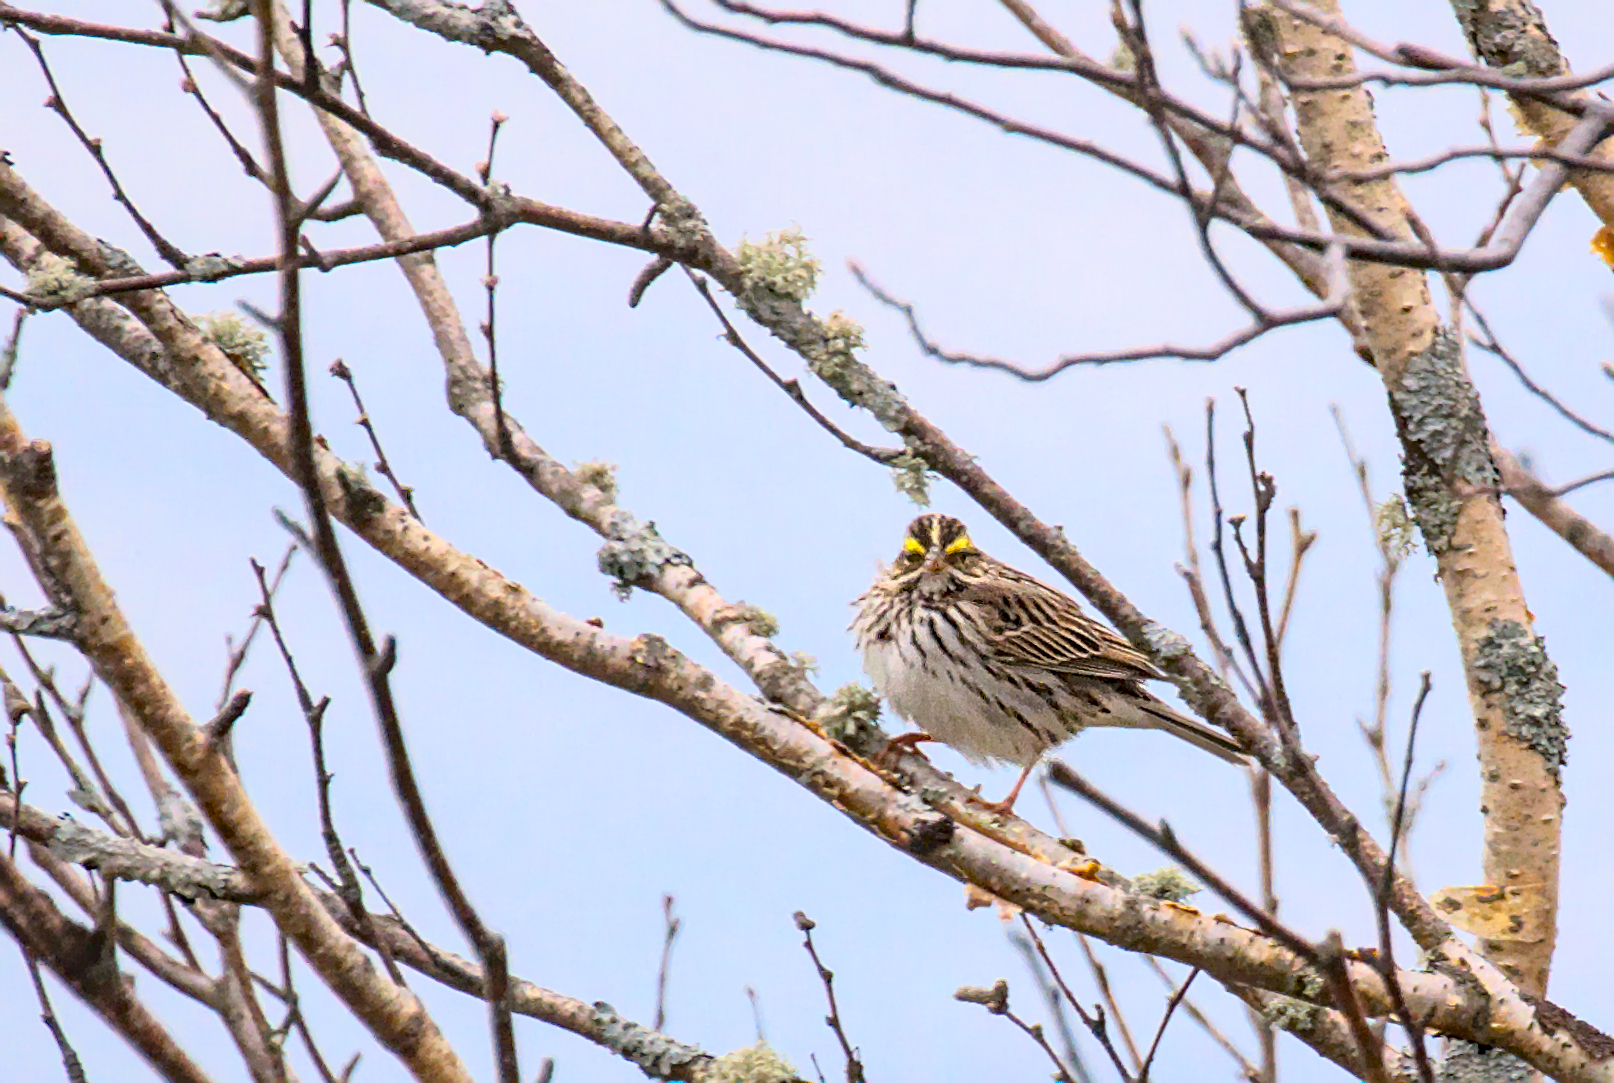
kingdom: Animalia
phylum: Chordata
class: Aves
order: Passeriformes
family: Passerellidae
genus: Passerculus
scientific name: Passerculus sandwichensis
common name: Savannah sparrow
